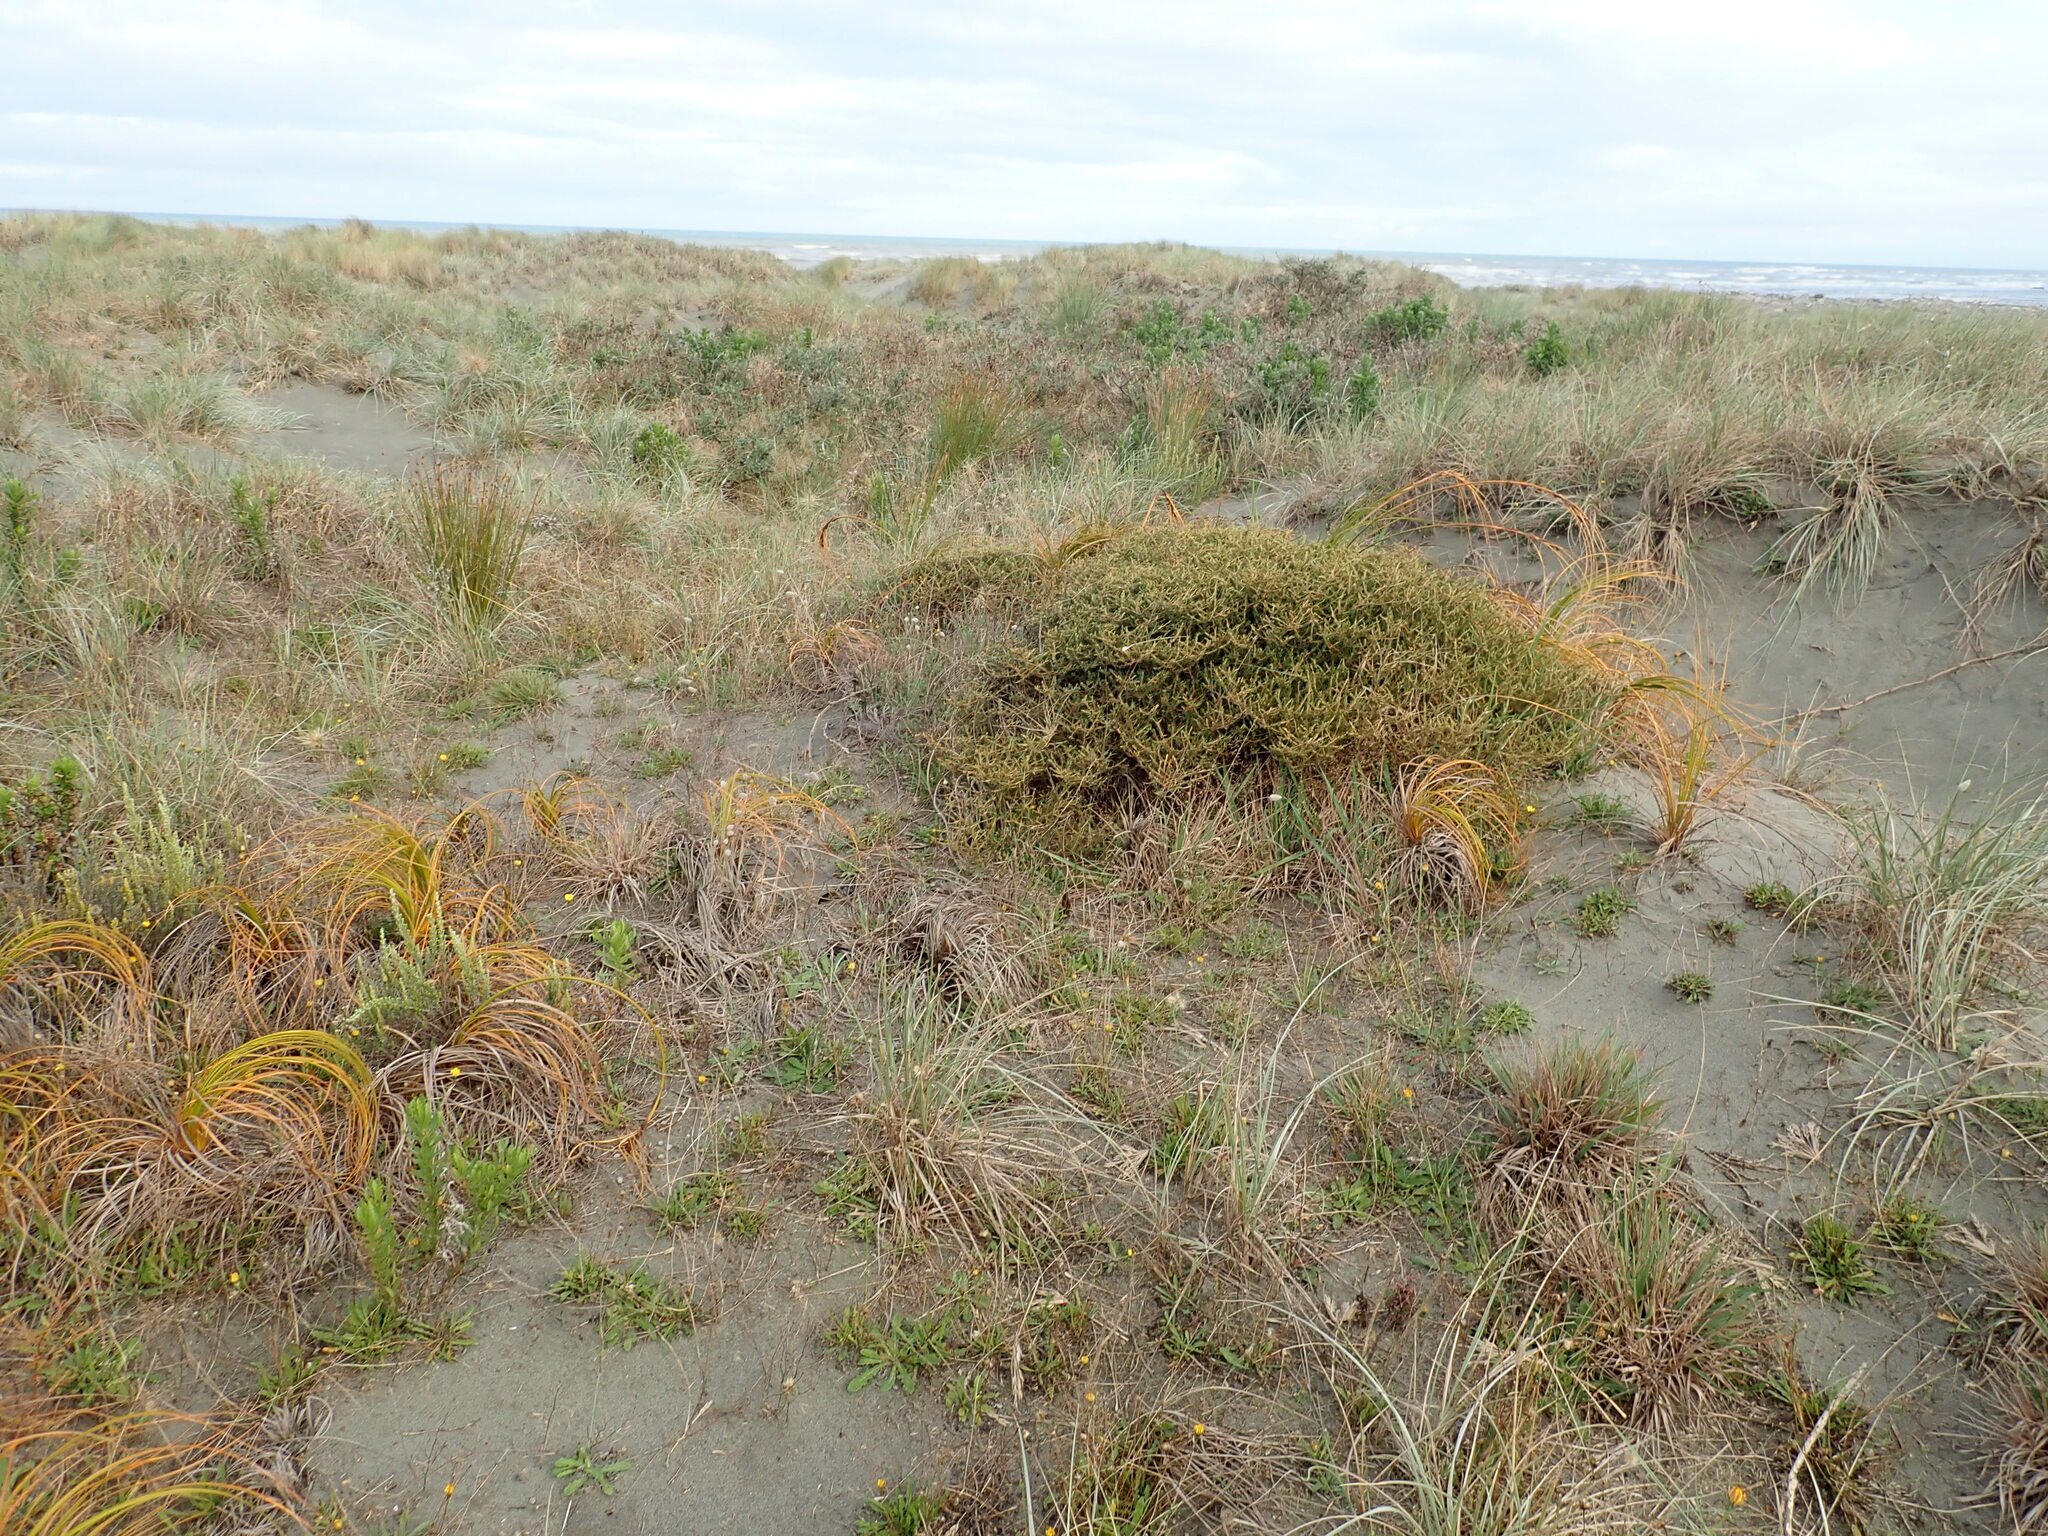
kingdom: Plantae
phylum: Tracheophyta
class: Magnoliopsida
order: Gentianales
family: Rubiaceae
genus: Coprosma
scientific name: Coprosma acerosa
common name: Sand coprosma
